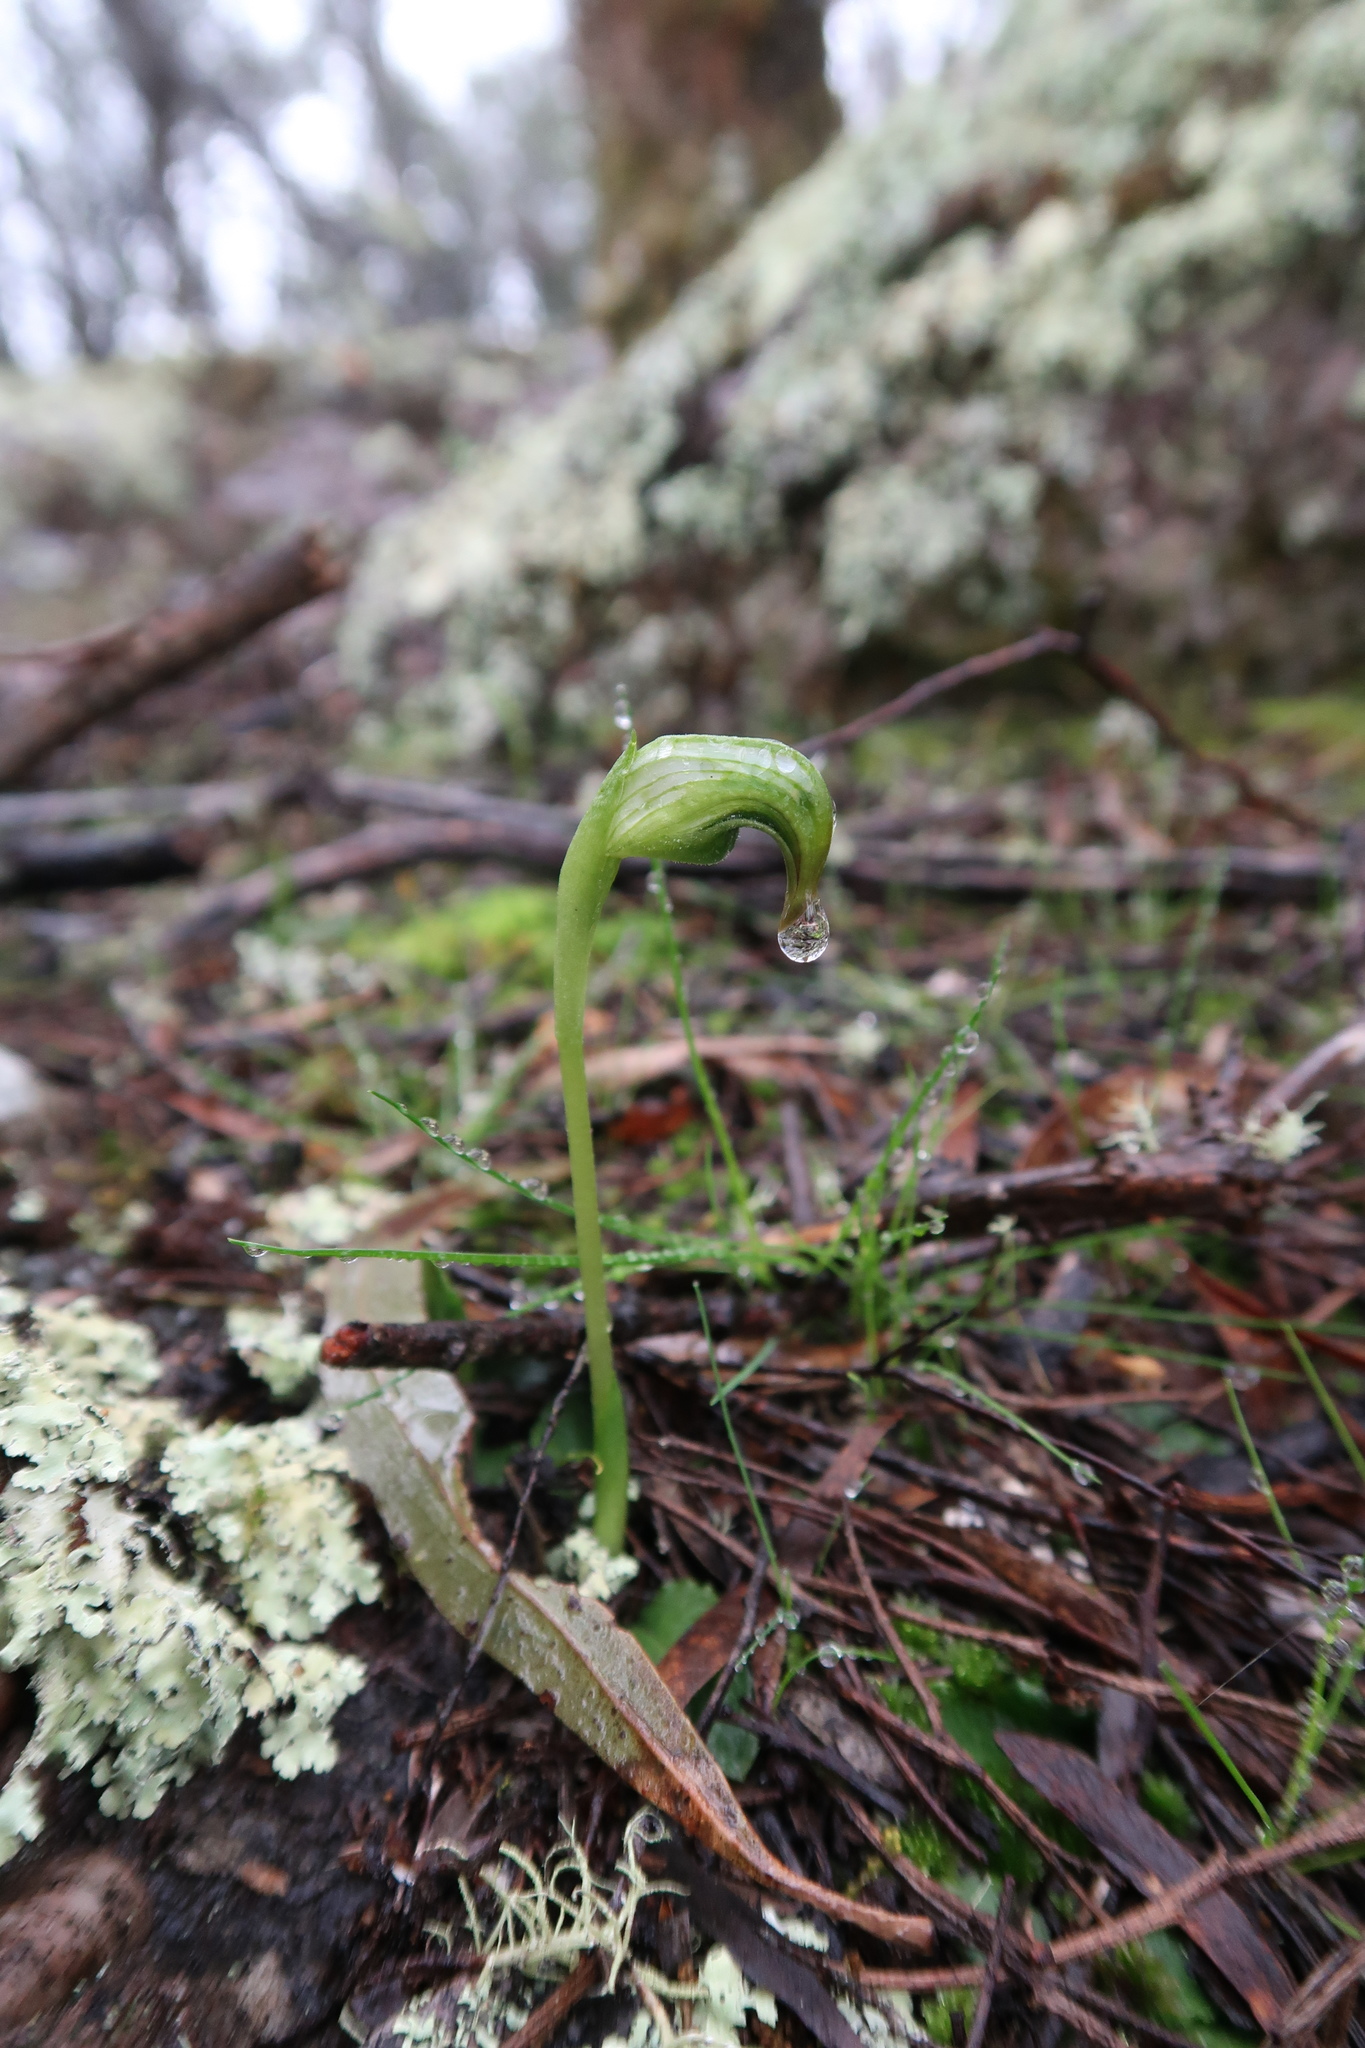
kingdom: Plantae
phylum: Tracheophyta
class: Liliopsida
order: Asparagales
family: Orchidaceae
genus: Pterostylis
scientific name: Pterostylis nutans
